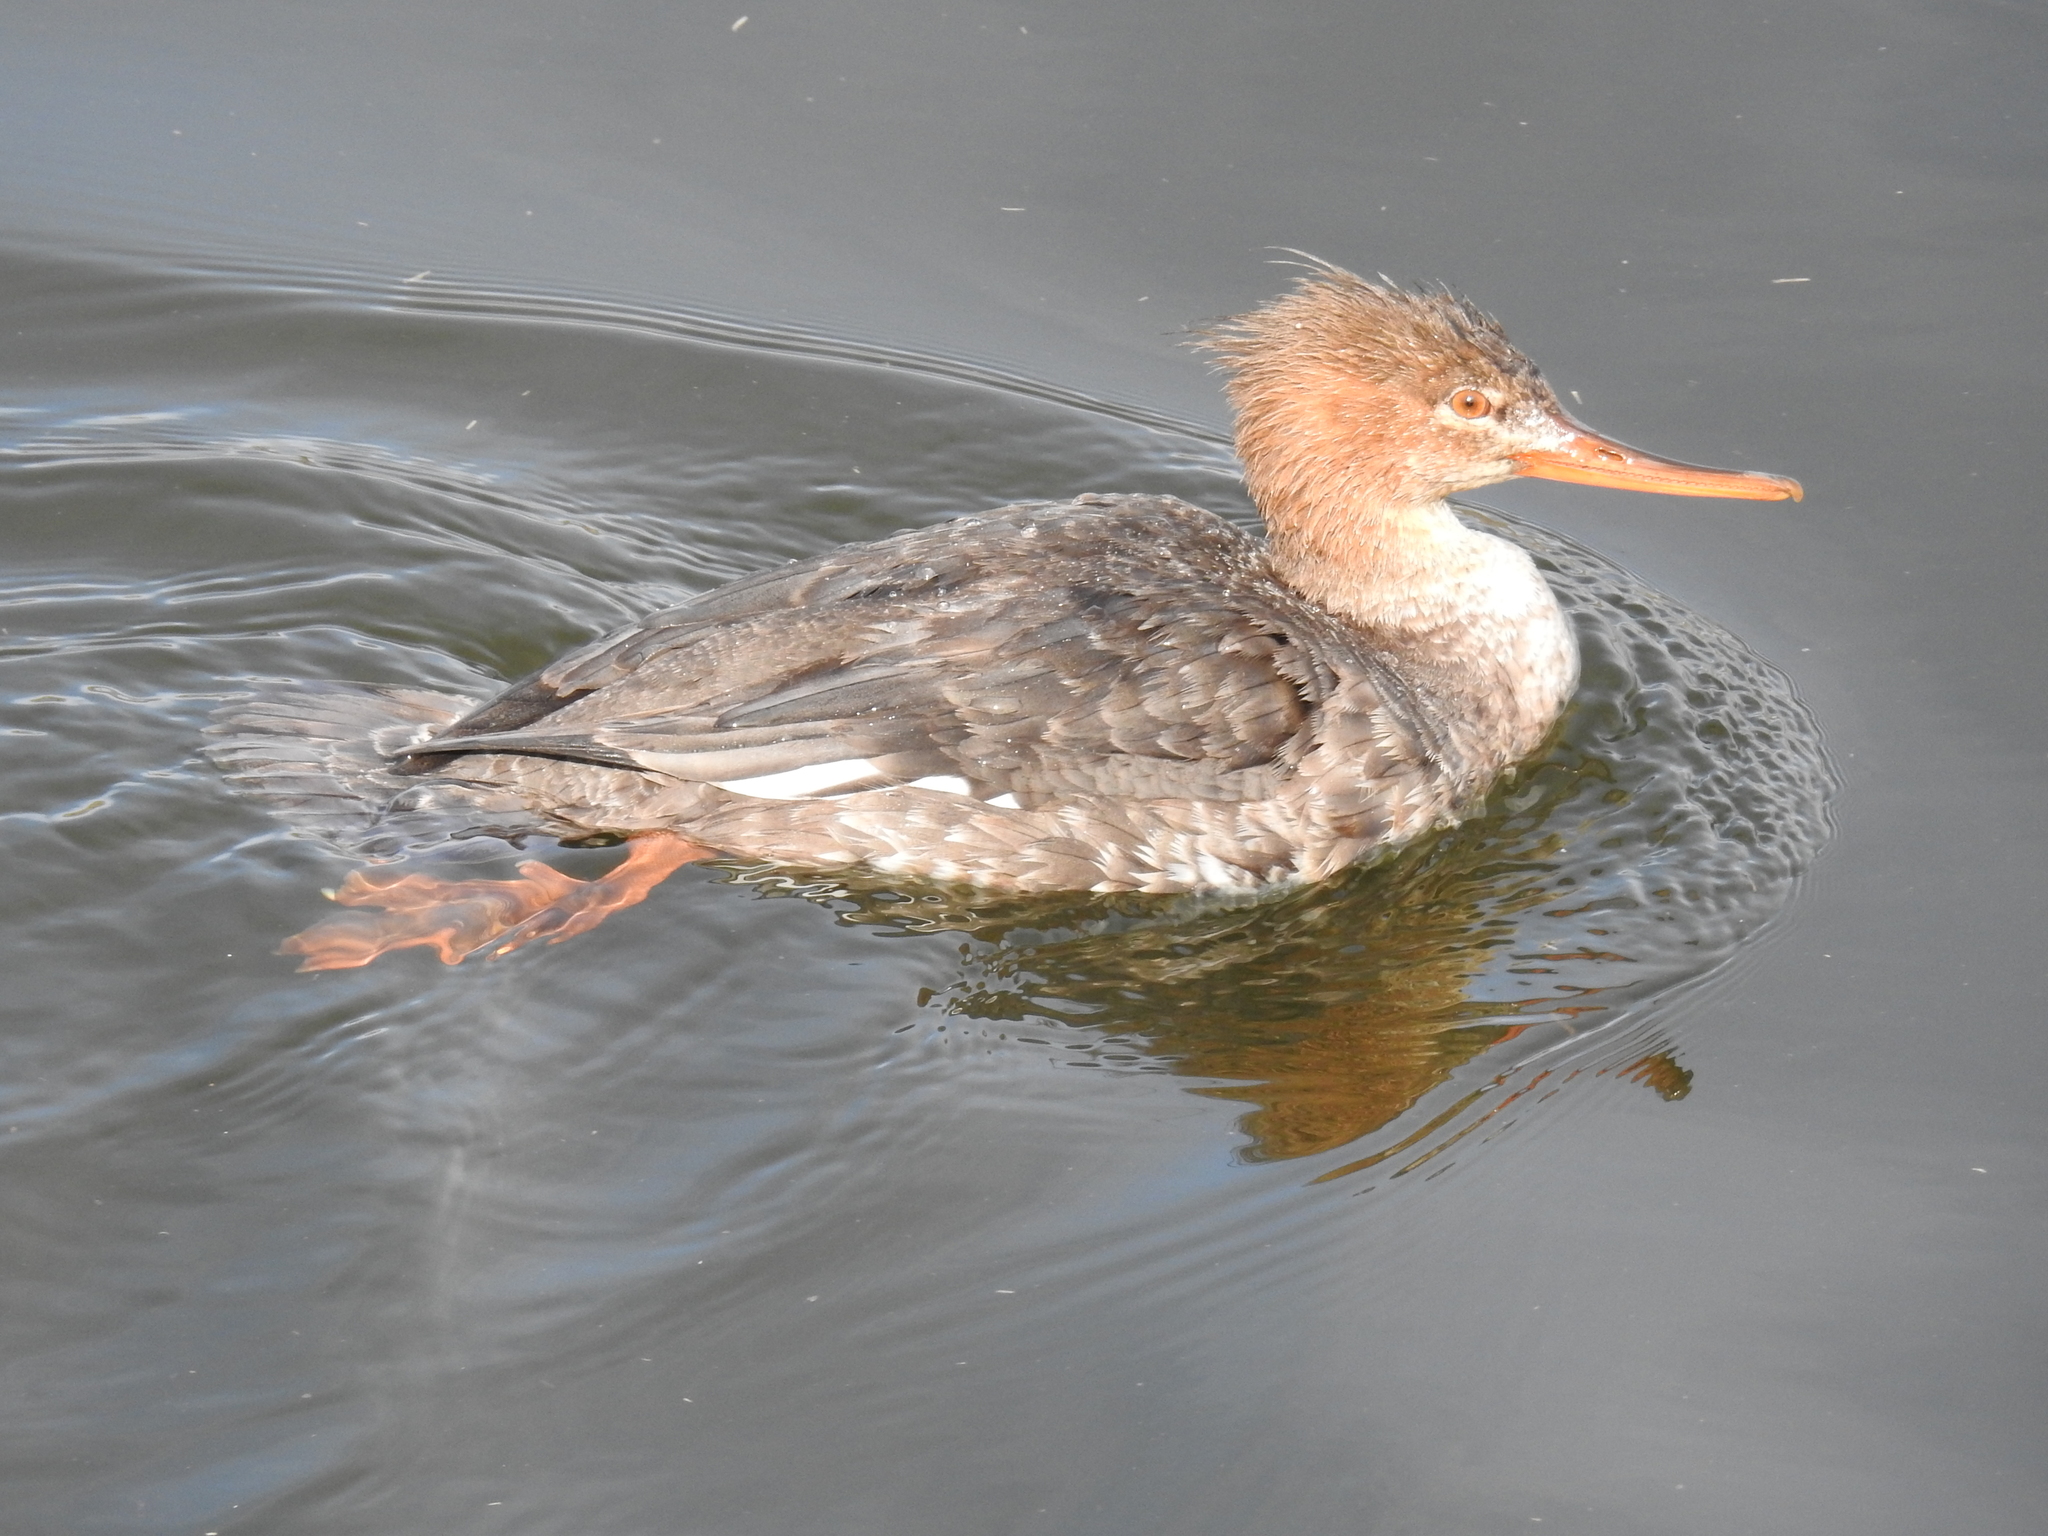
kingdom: Animalia
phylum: Chordata
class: Aves
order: Anseriformes
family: Anatidae
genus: Mergus
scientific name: Mergus serrator
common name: Red-breasted merganser
